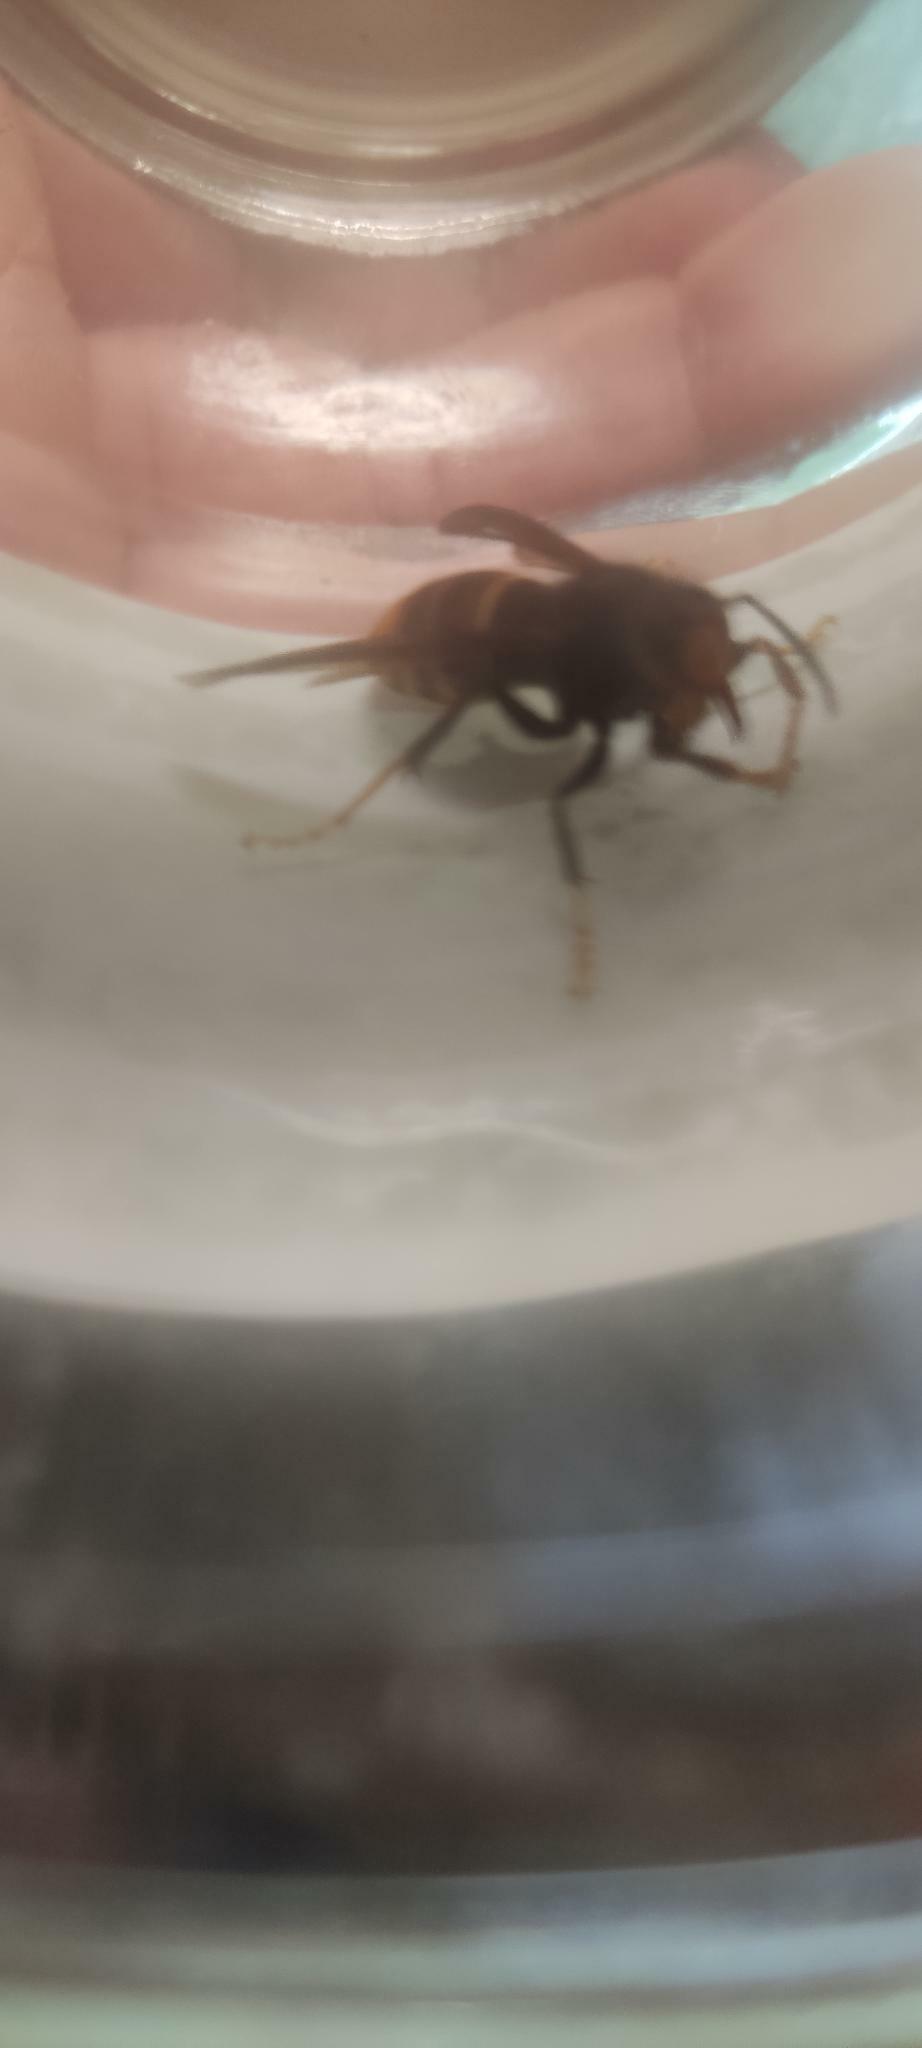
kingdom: Animalia
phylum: Arthropoda
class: Insecta
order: Hymenoptera
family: Vespidae
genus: Vespa
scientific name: Vespa velutina
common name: Asian hornet
